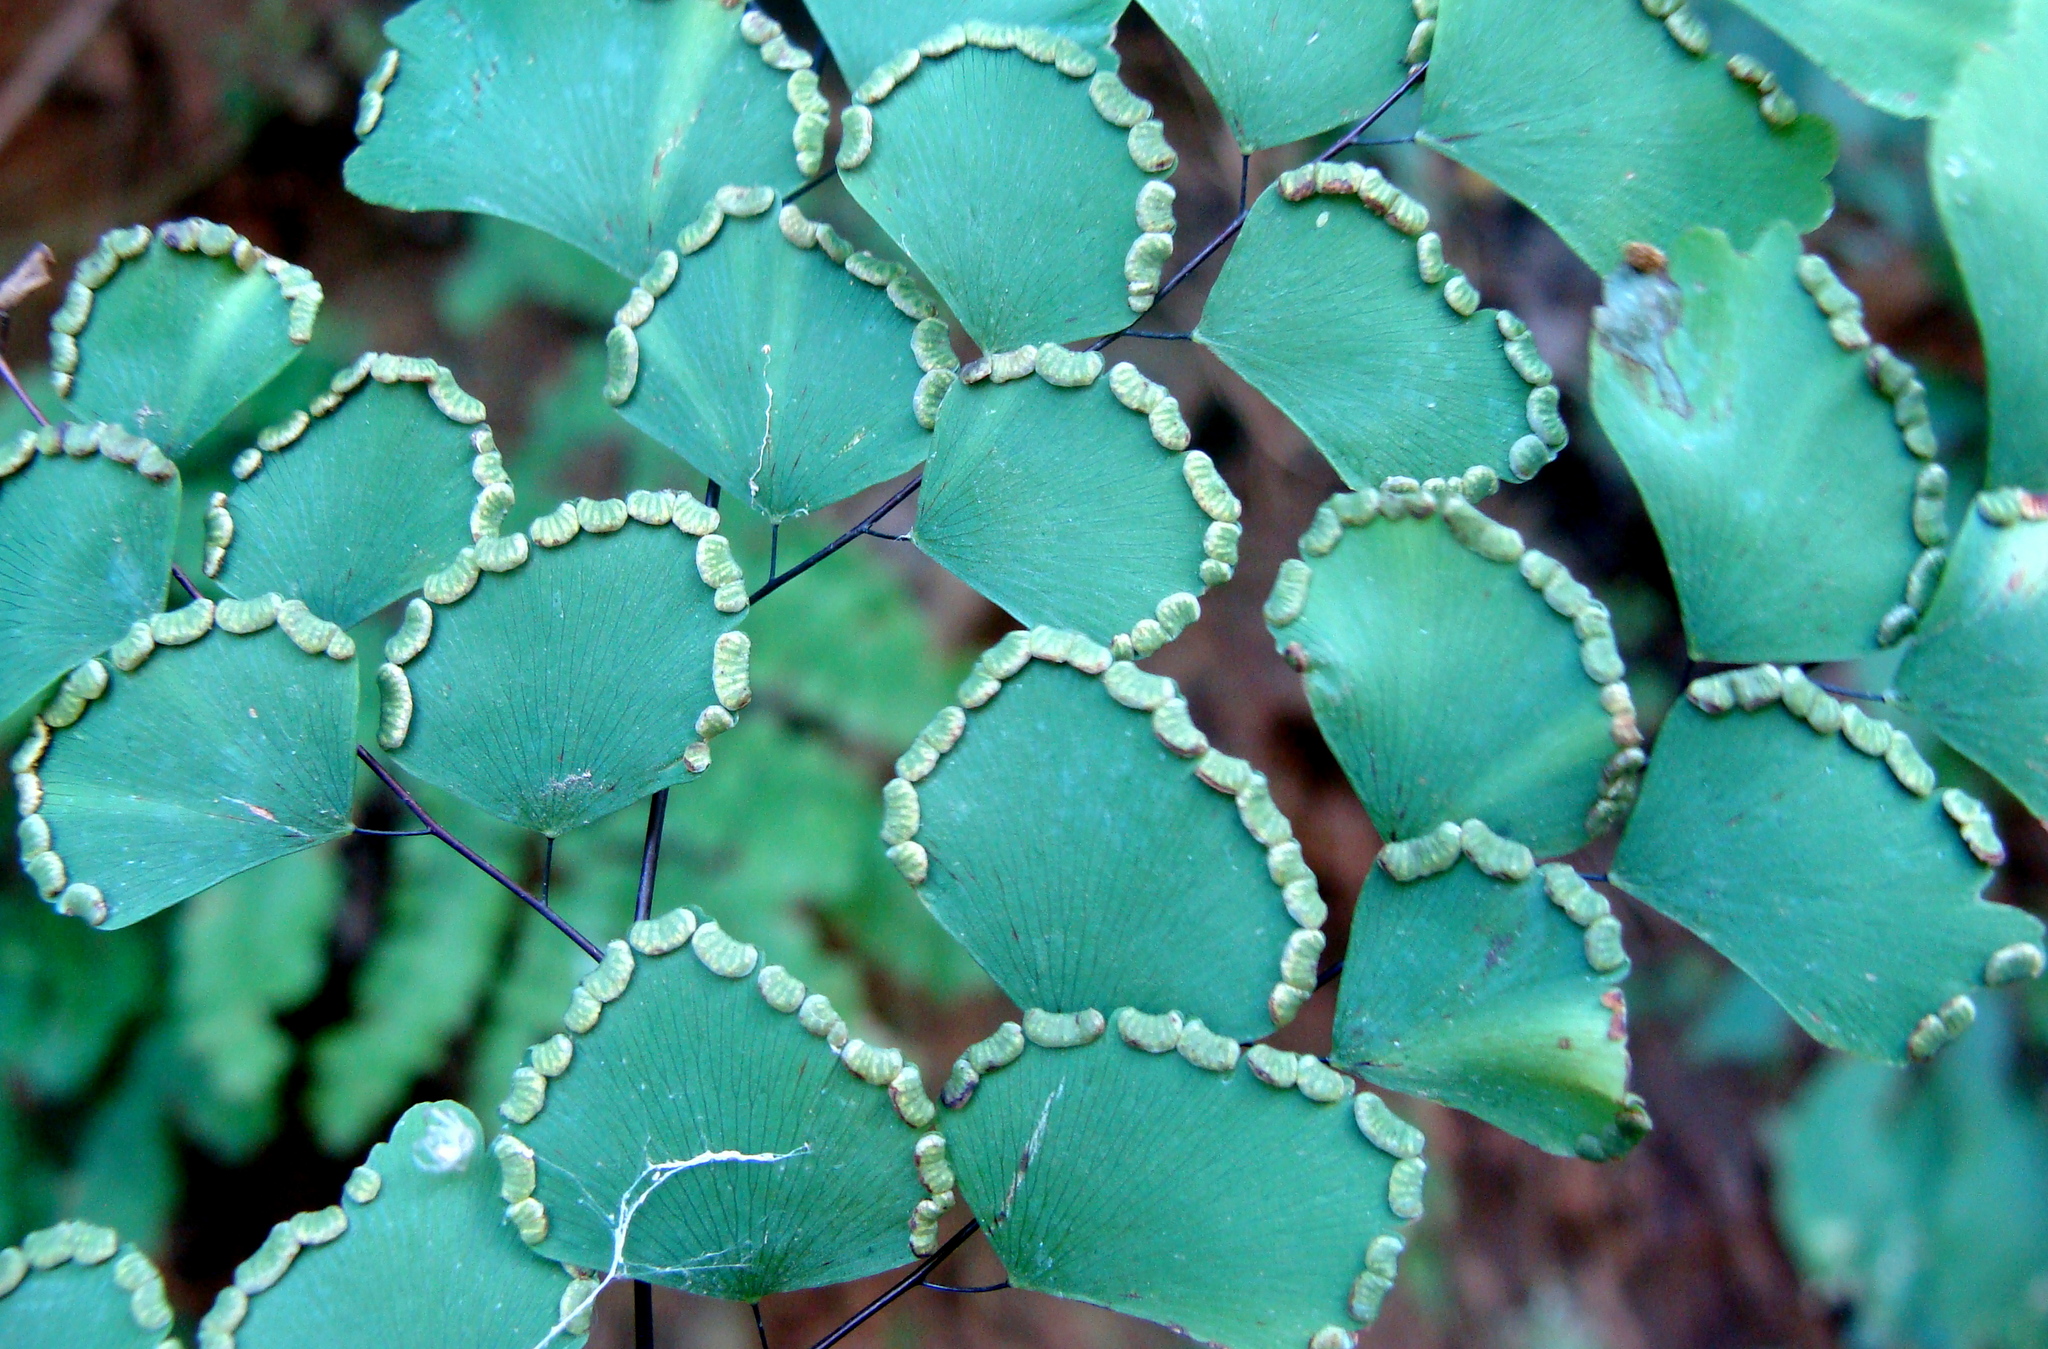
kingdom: Plantae
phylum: Tracheophyta
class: Polypodiopsida
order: Polypodiales
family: Pteridaceae
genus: Adiantum
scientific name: Adiantum amplum
